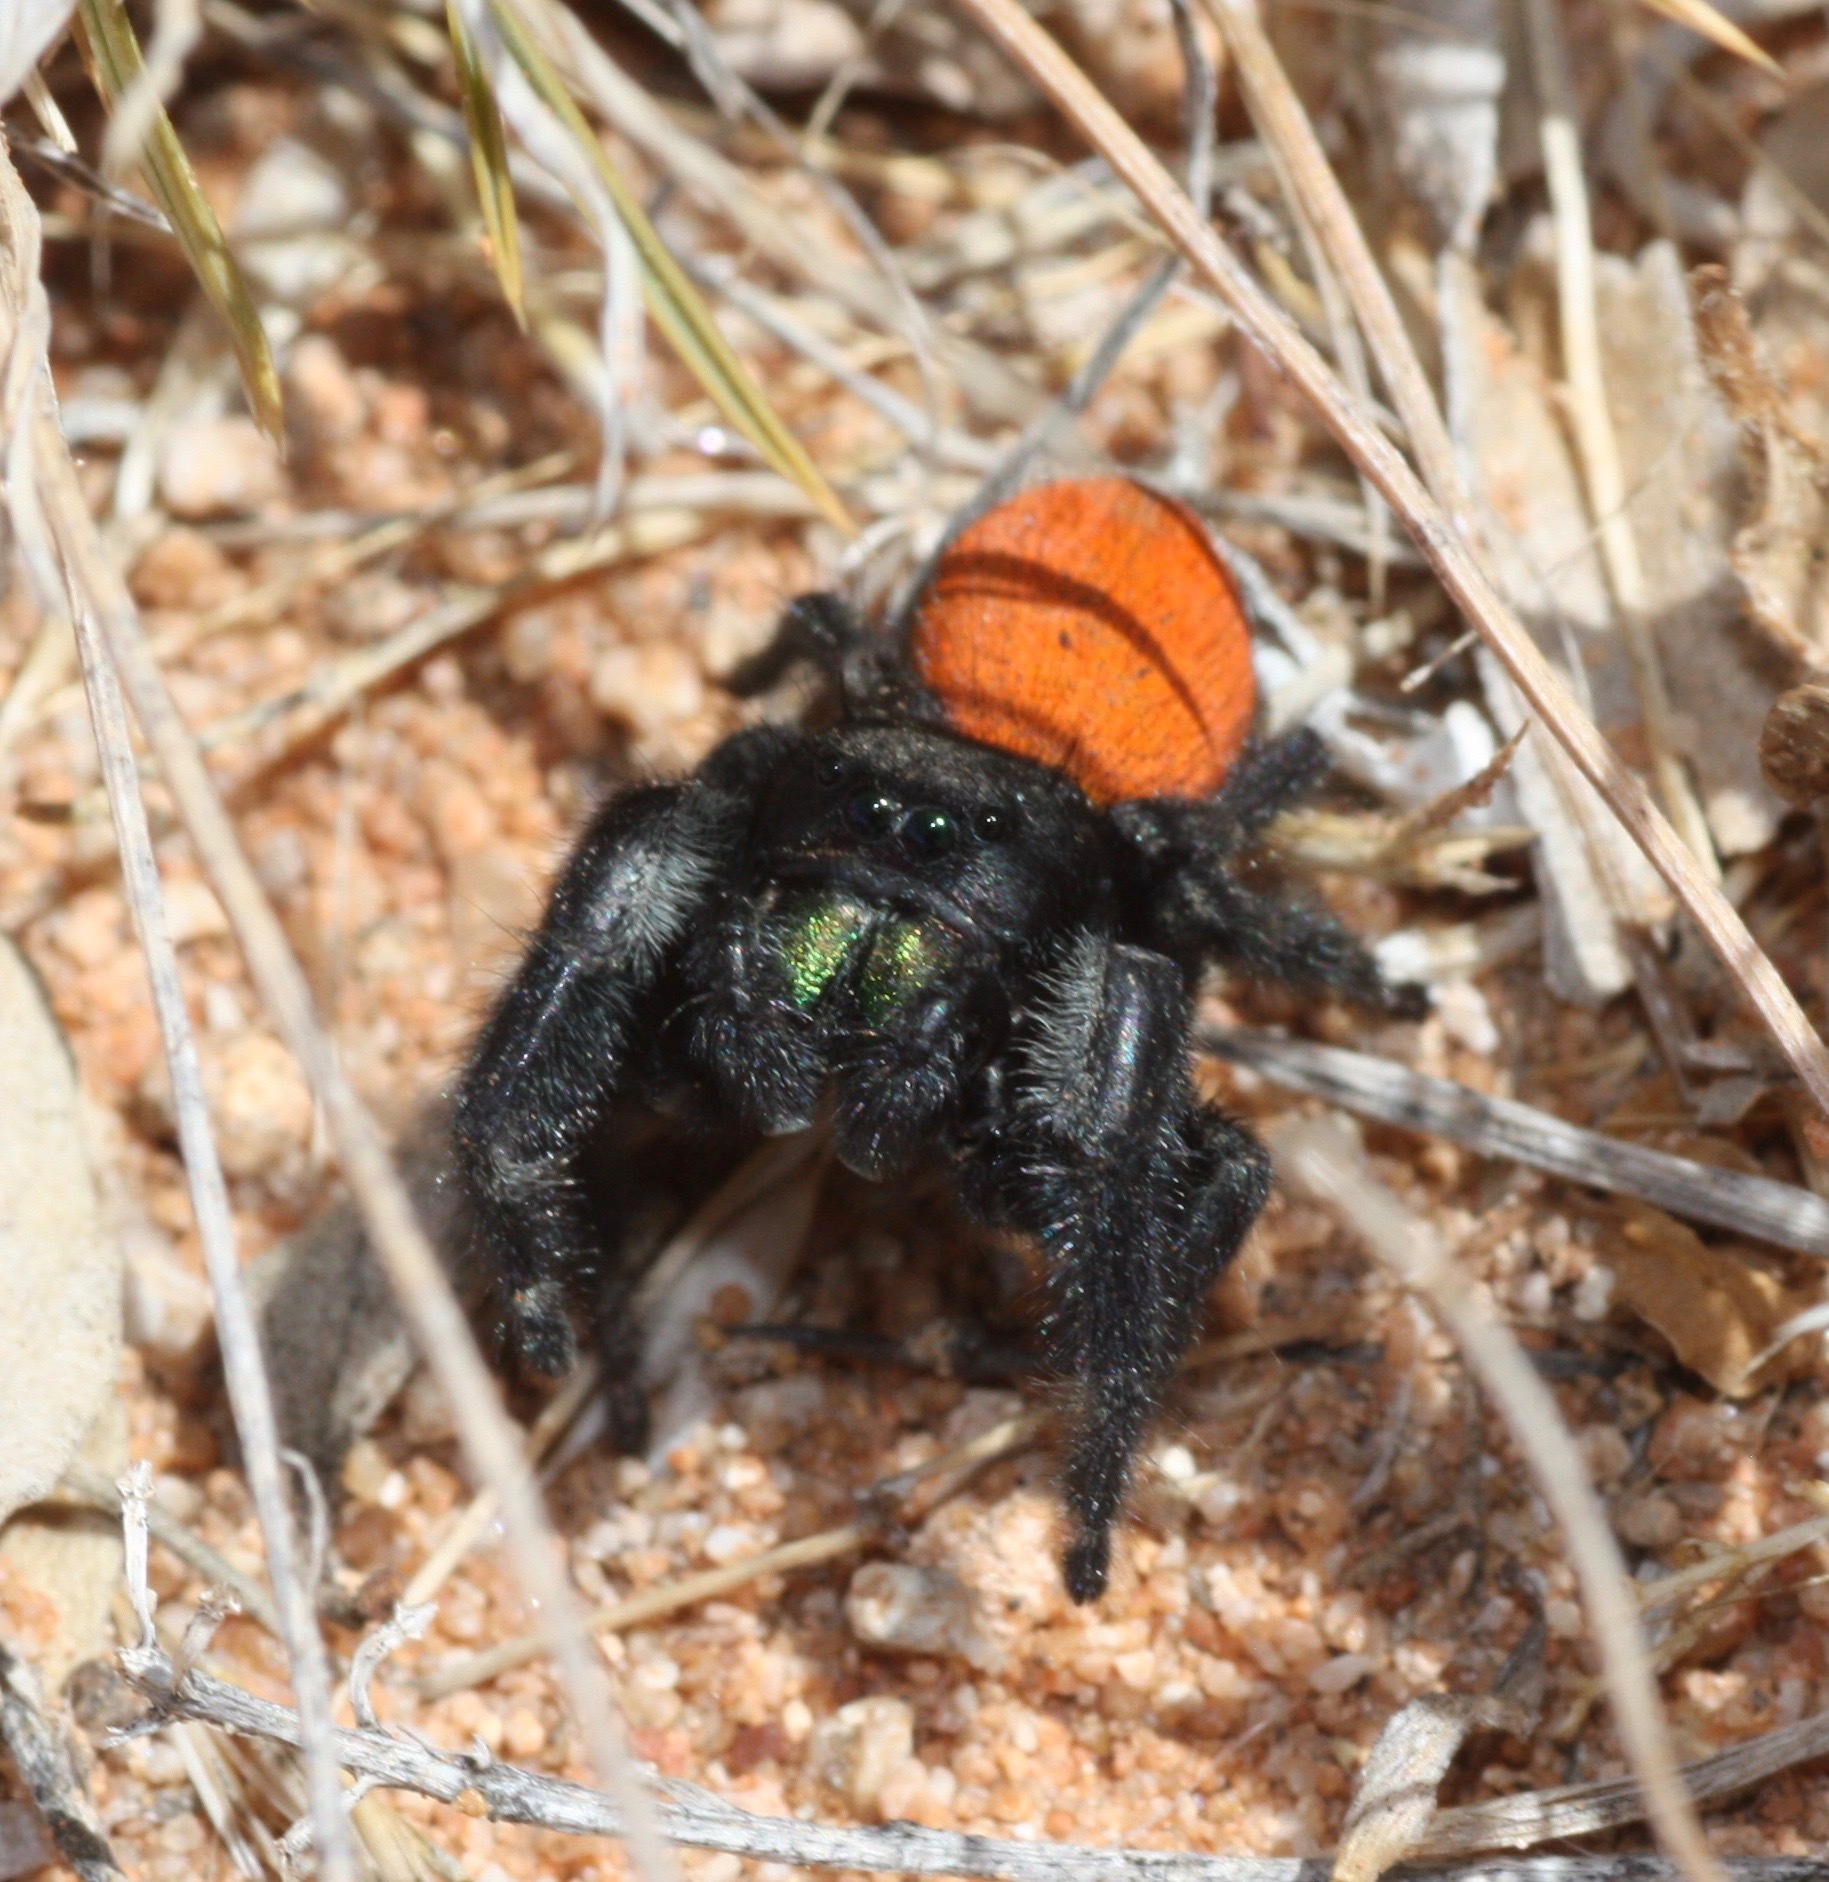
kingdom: Animalia
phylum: Arthropoda
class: Arachnida
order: Araneae
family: Salticidae
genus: Phidippus
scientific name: Phidippus ardens
